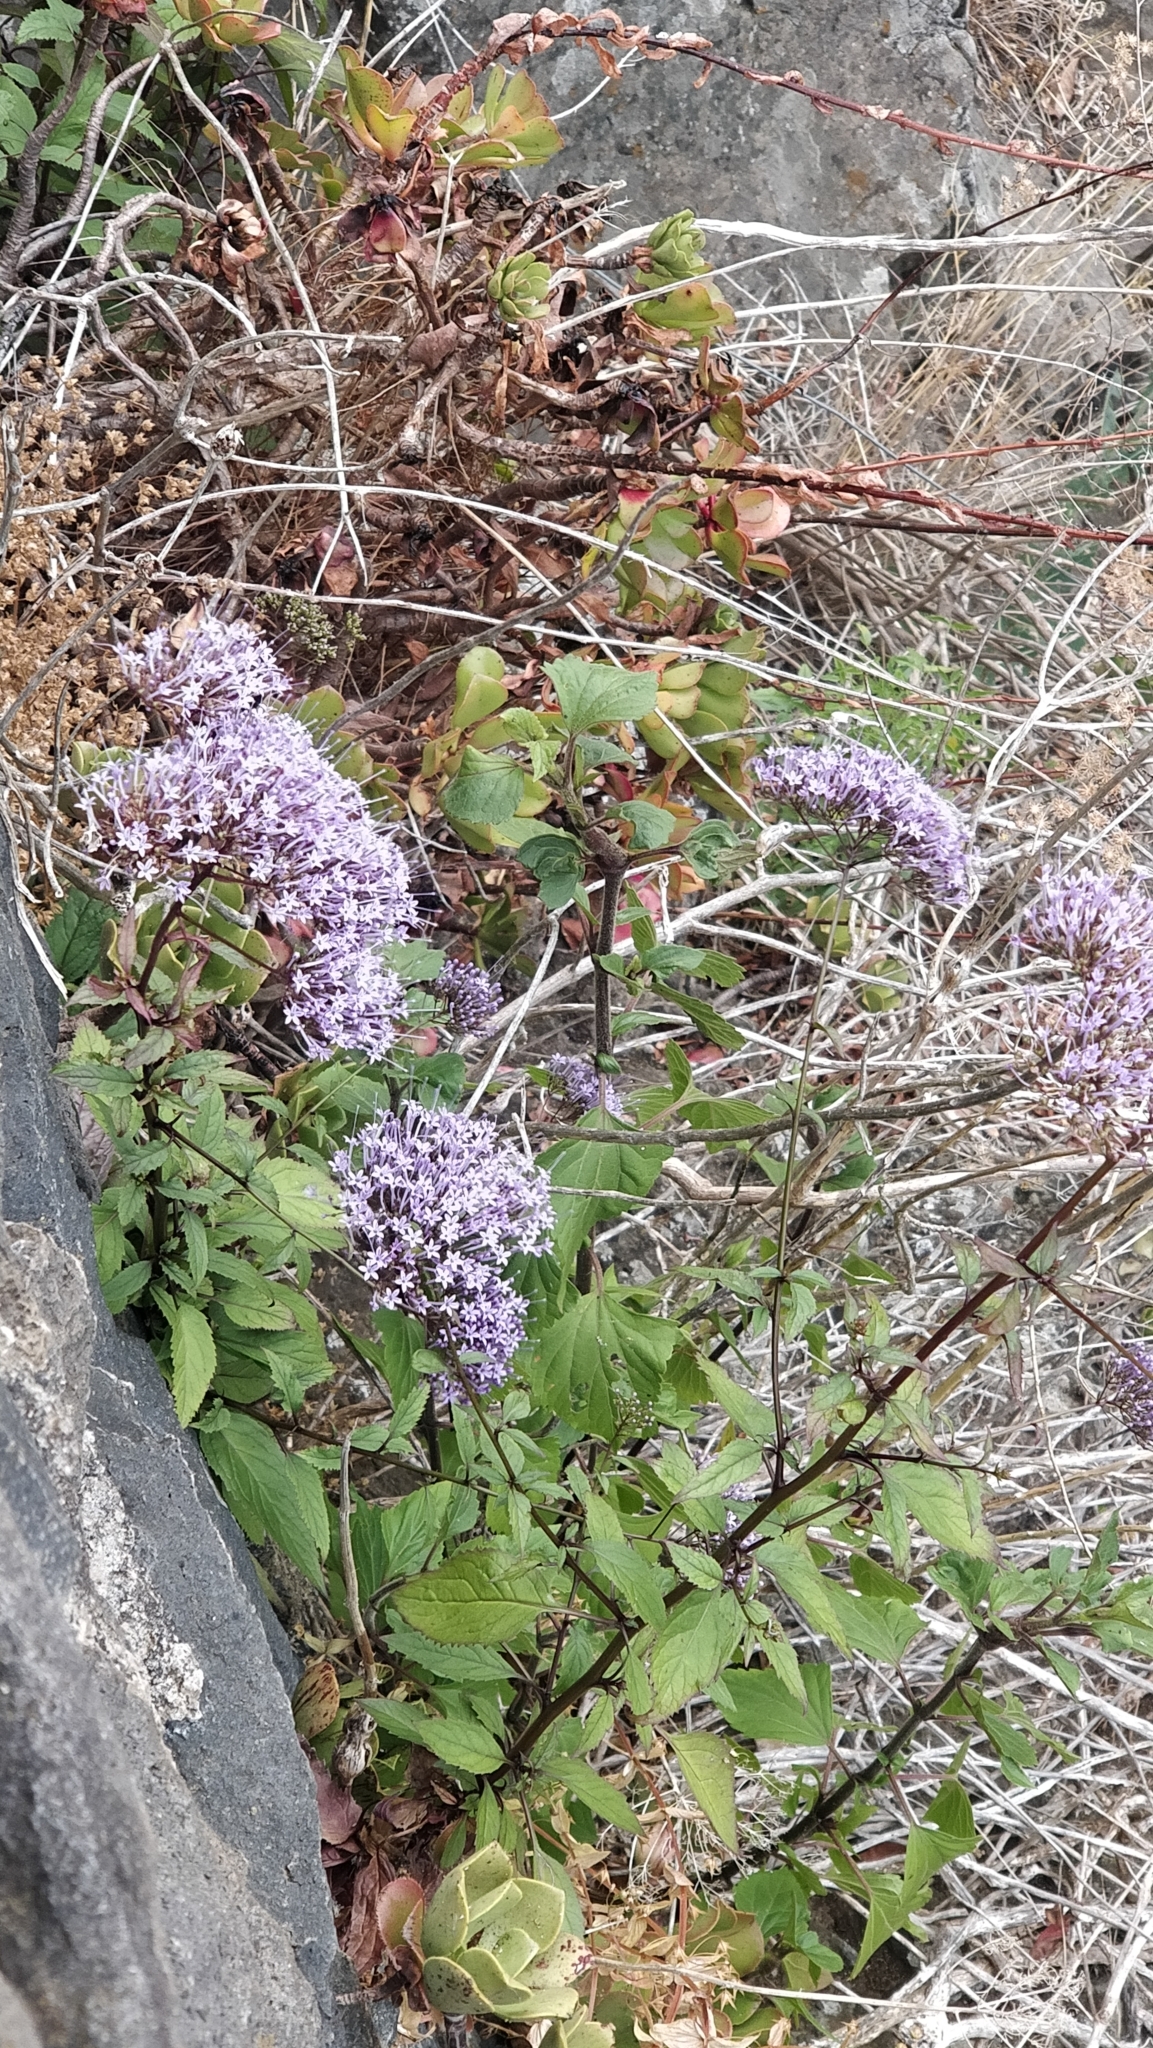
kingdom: Plantae
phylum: Tracheophyta
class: Magnoliopsida
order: Asterales
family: Campanulaceae
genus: Trachelium
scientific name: Trachelium caeruleum
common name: Throatwort
